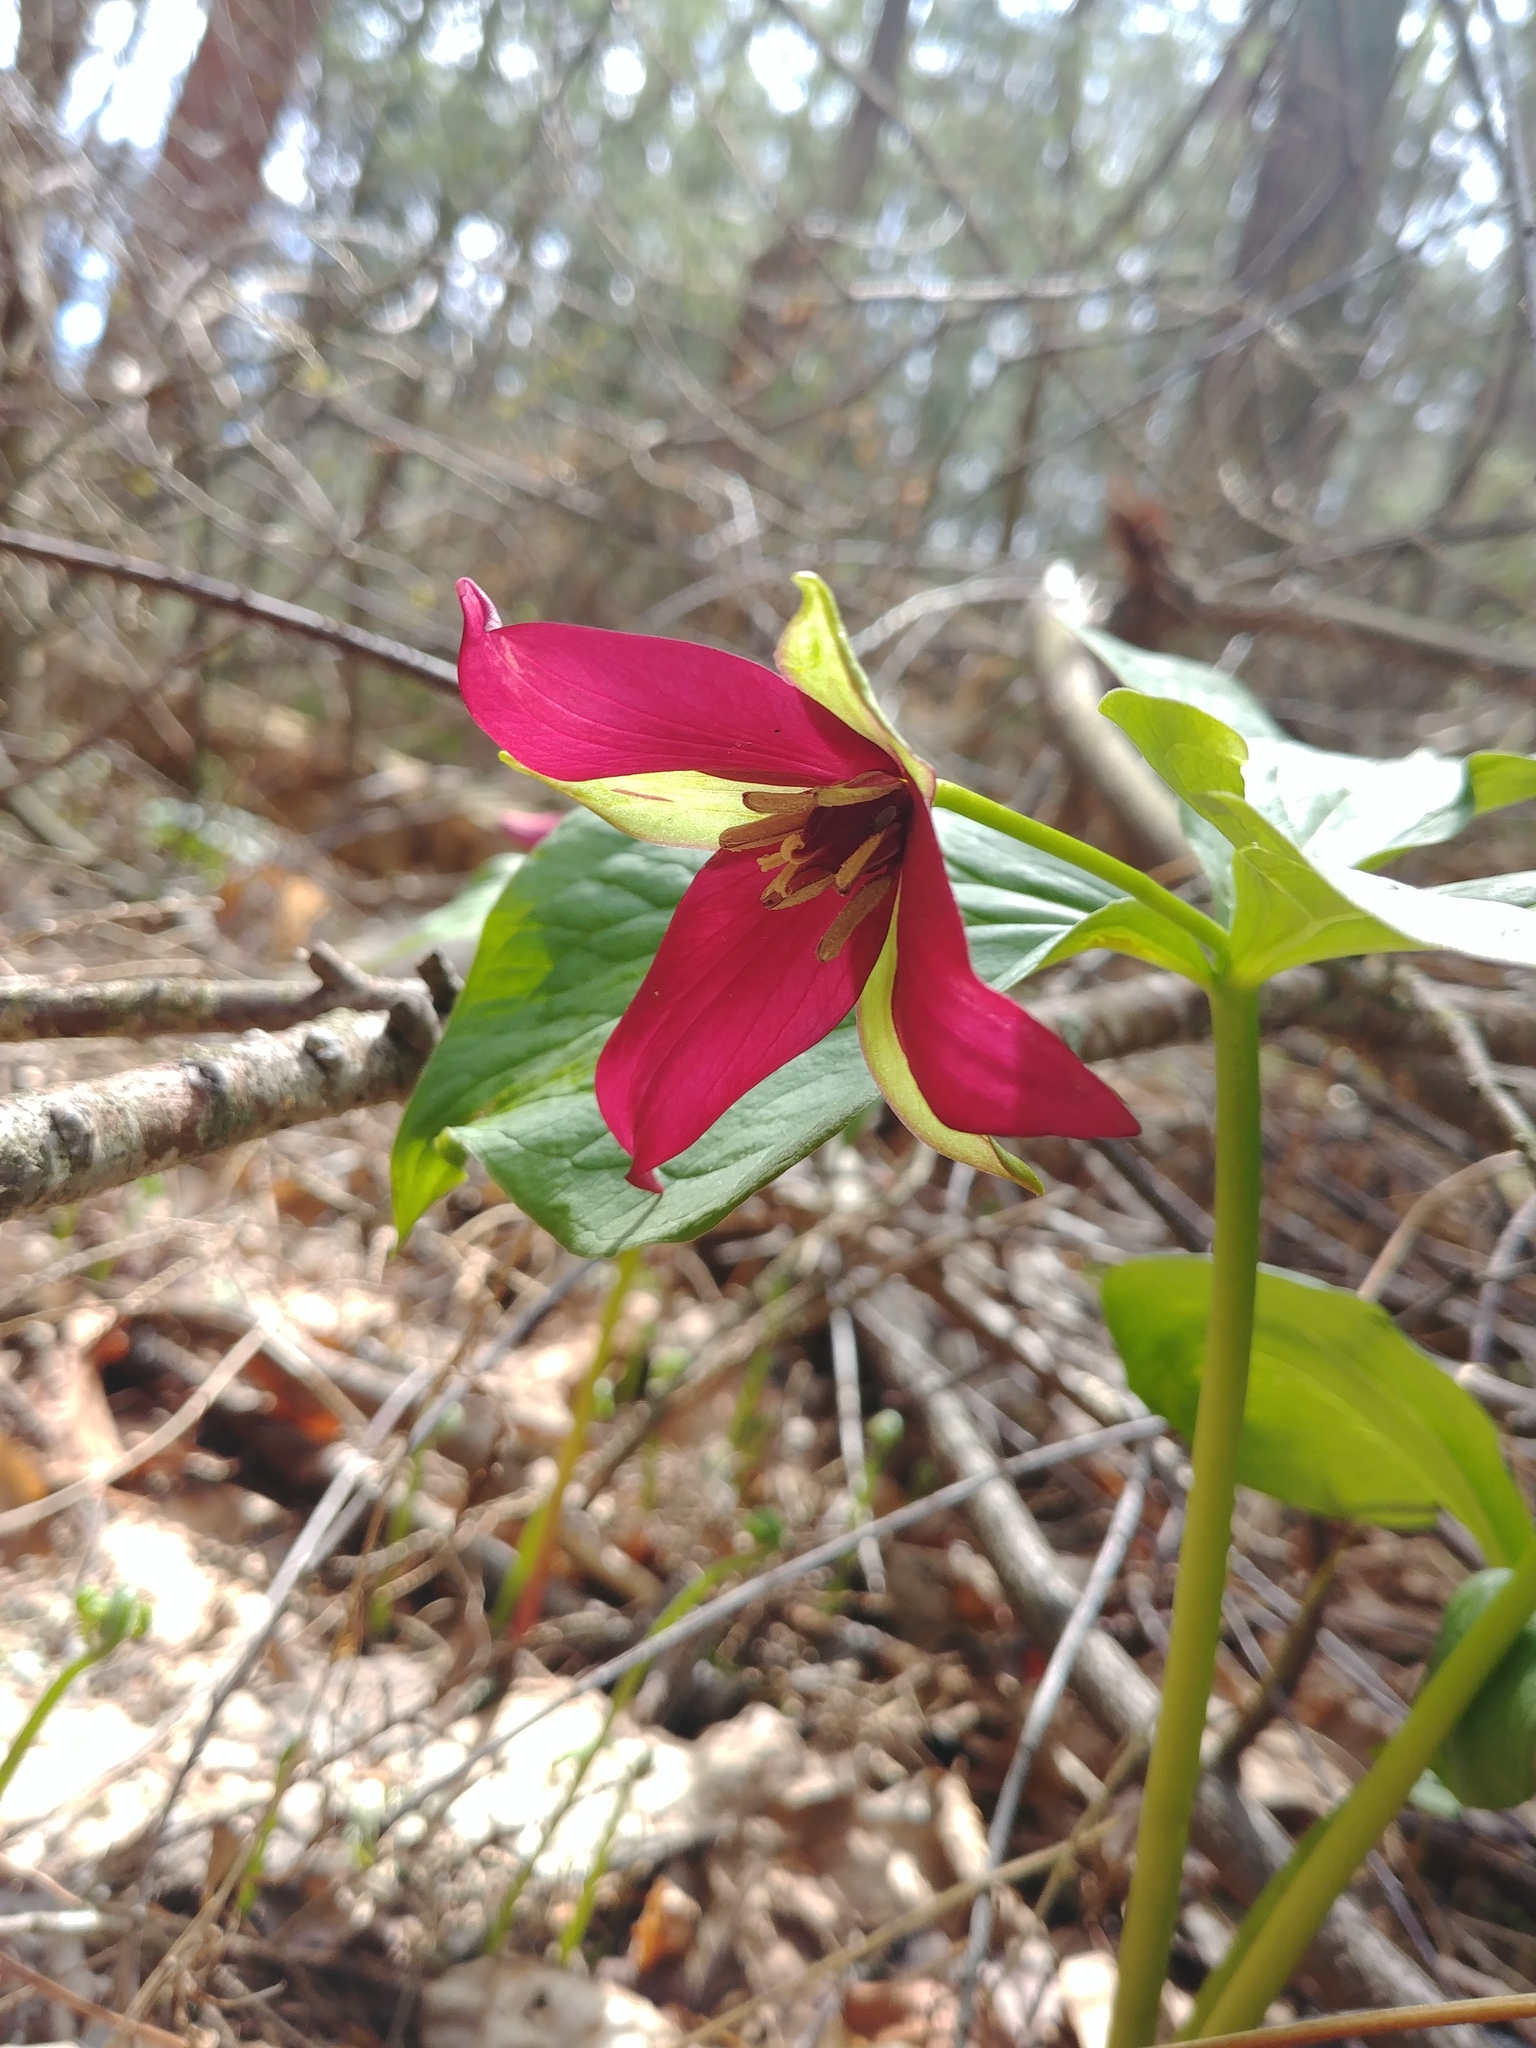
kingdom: Plantae
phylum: Tracheophyta
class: Liliopsida
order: Liliales
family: Melanthiaceae
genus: Trillium
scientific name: Trillium erectum
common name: Purple trillium
